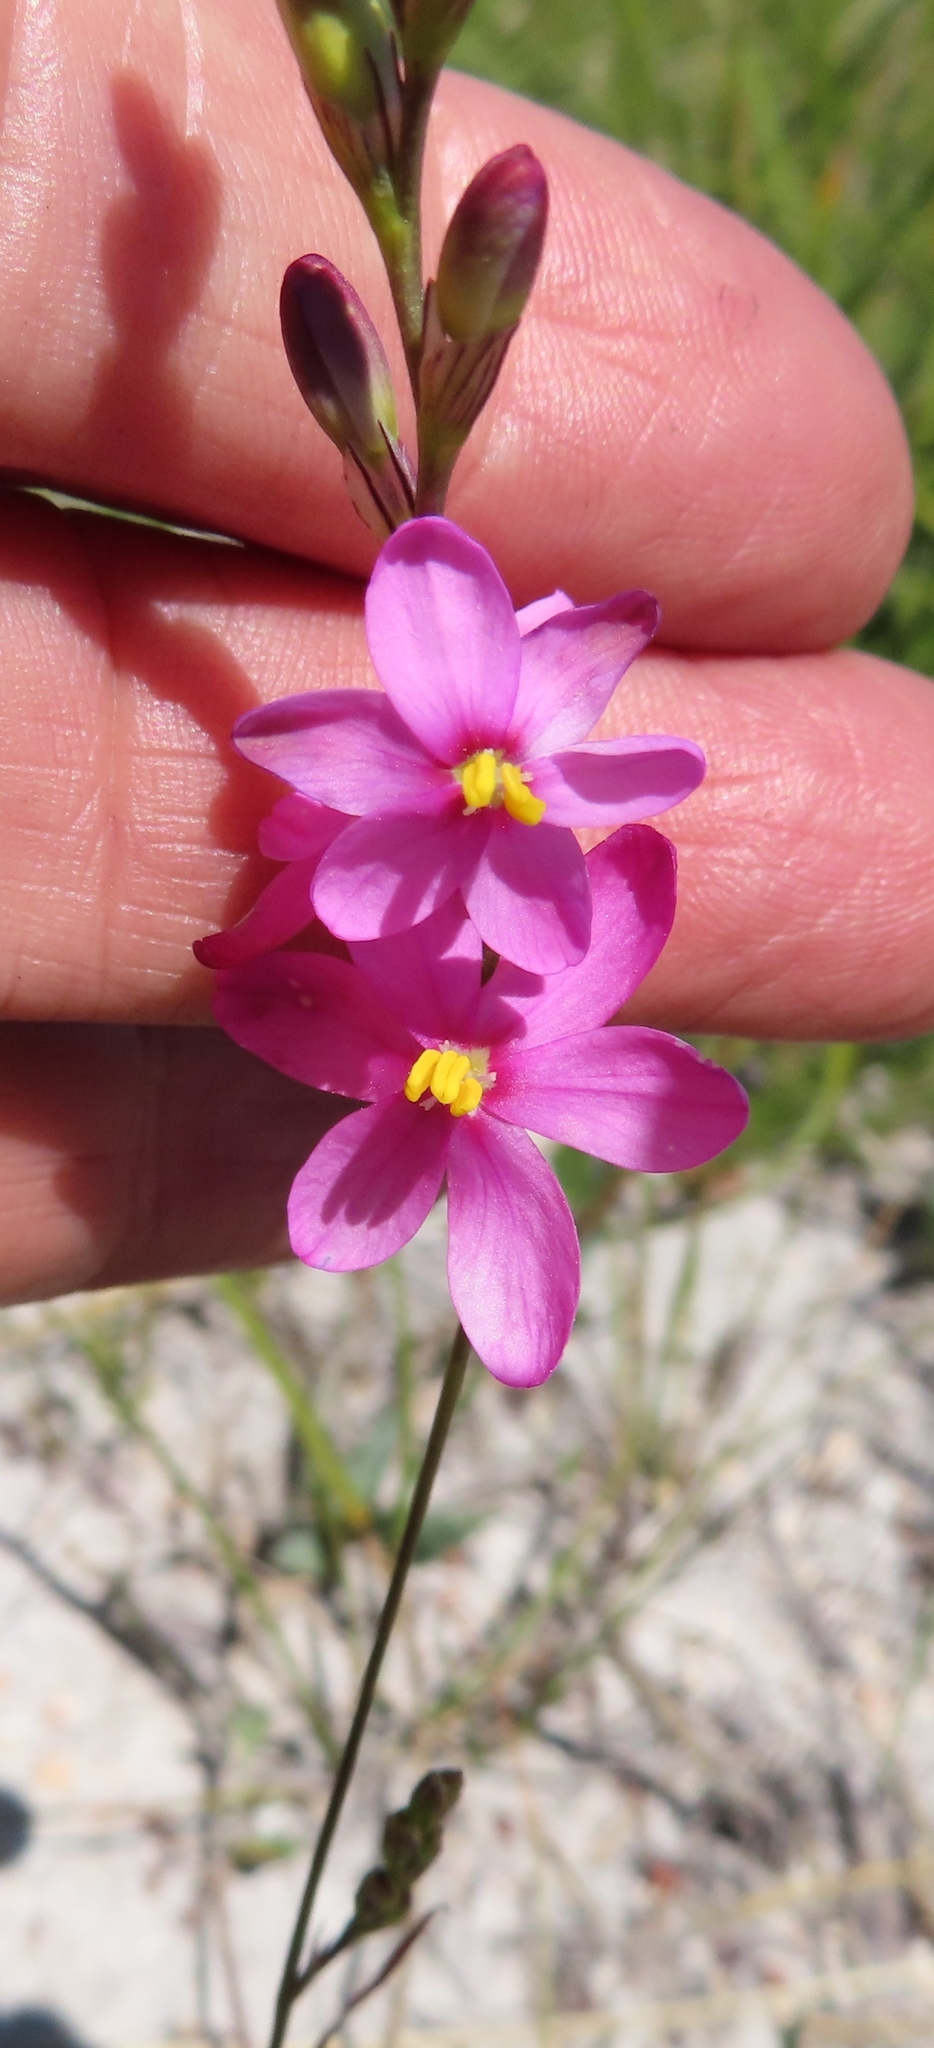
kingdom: Plantae
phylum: Tracheophyta
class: Liliopsida
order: Asparagales
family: Iridaceae
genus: Ixia
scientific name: Ixia stricta
